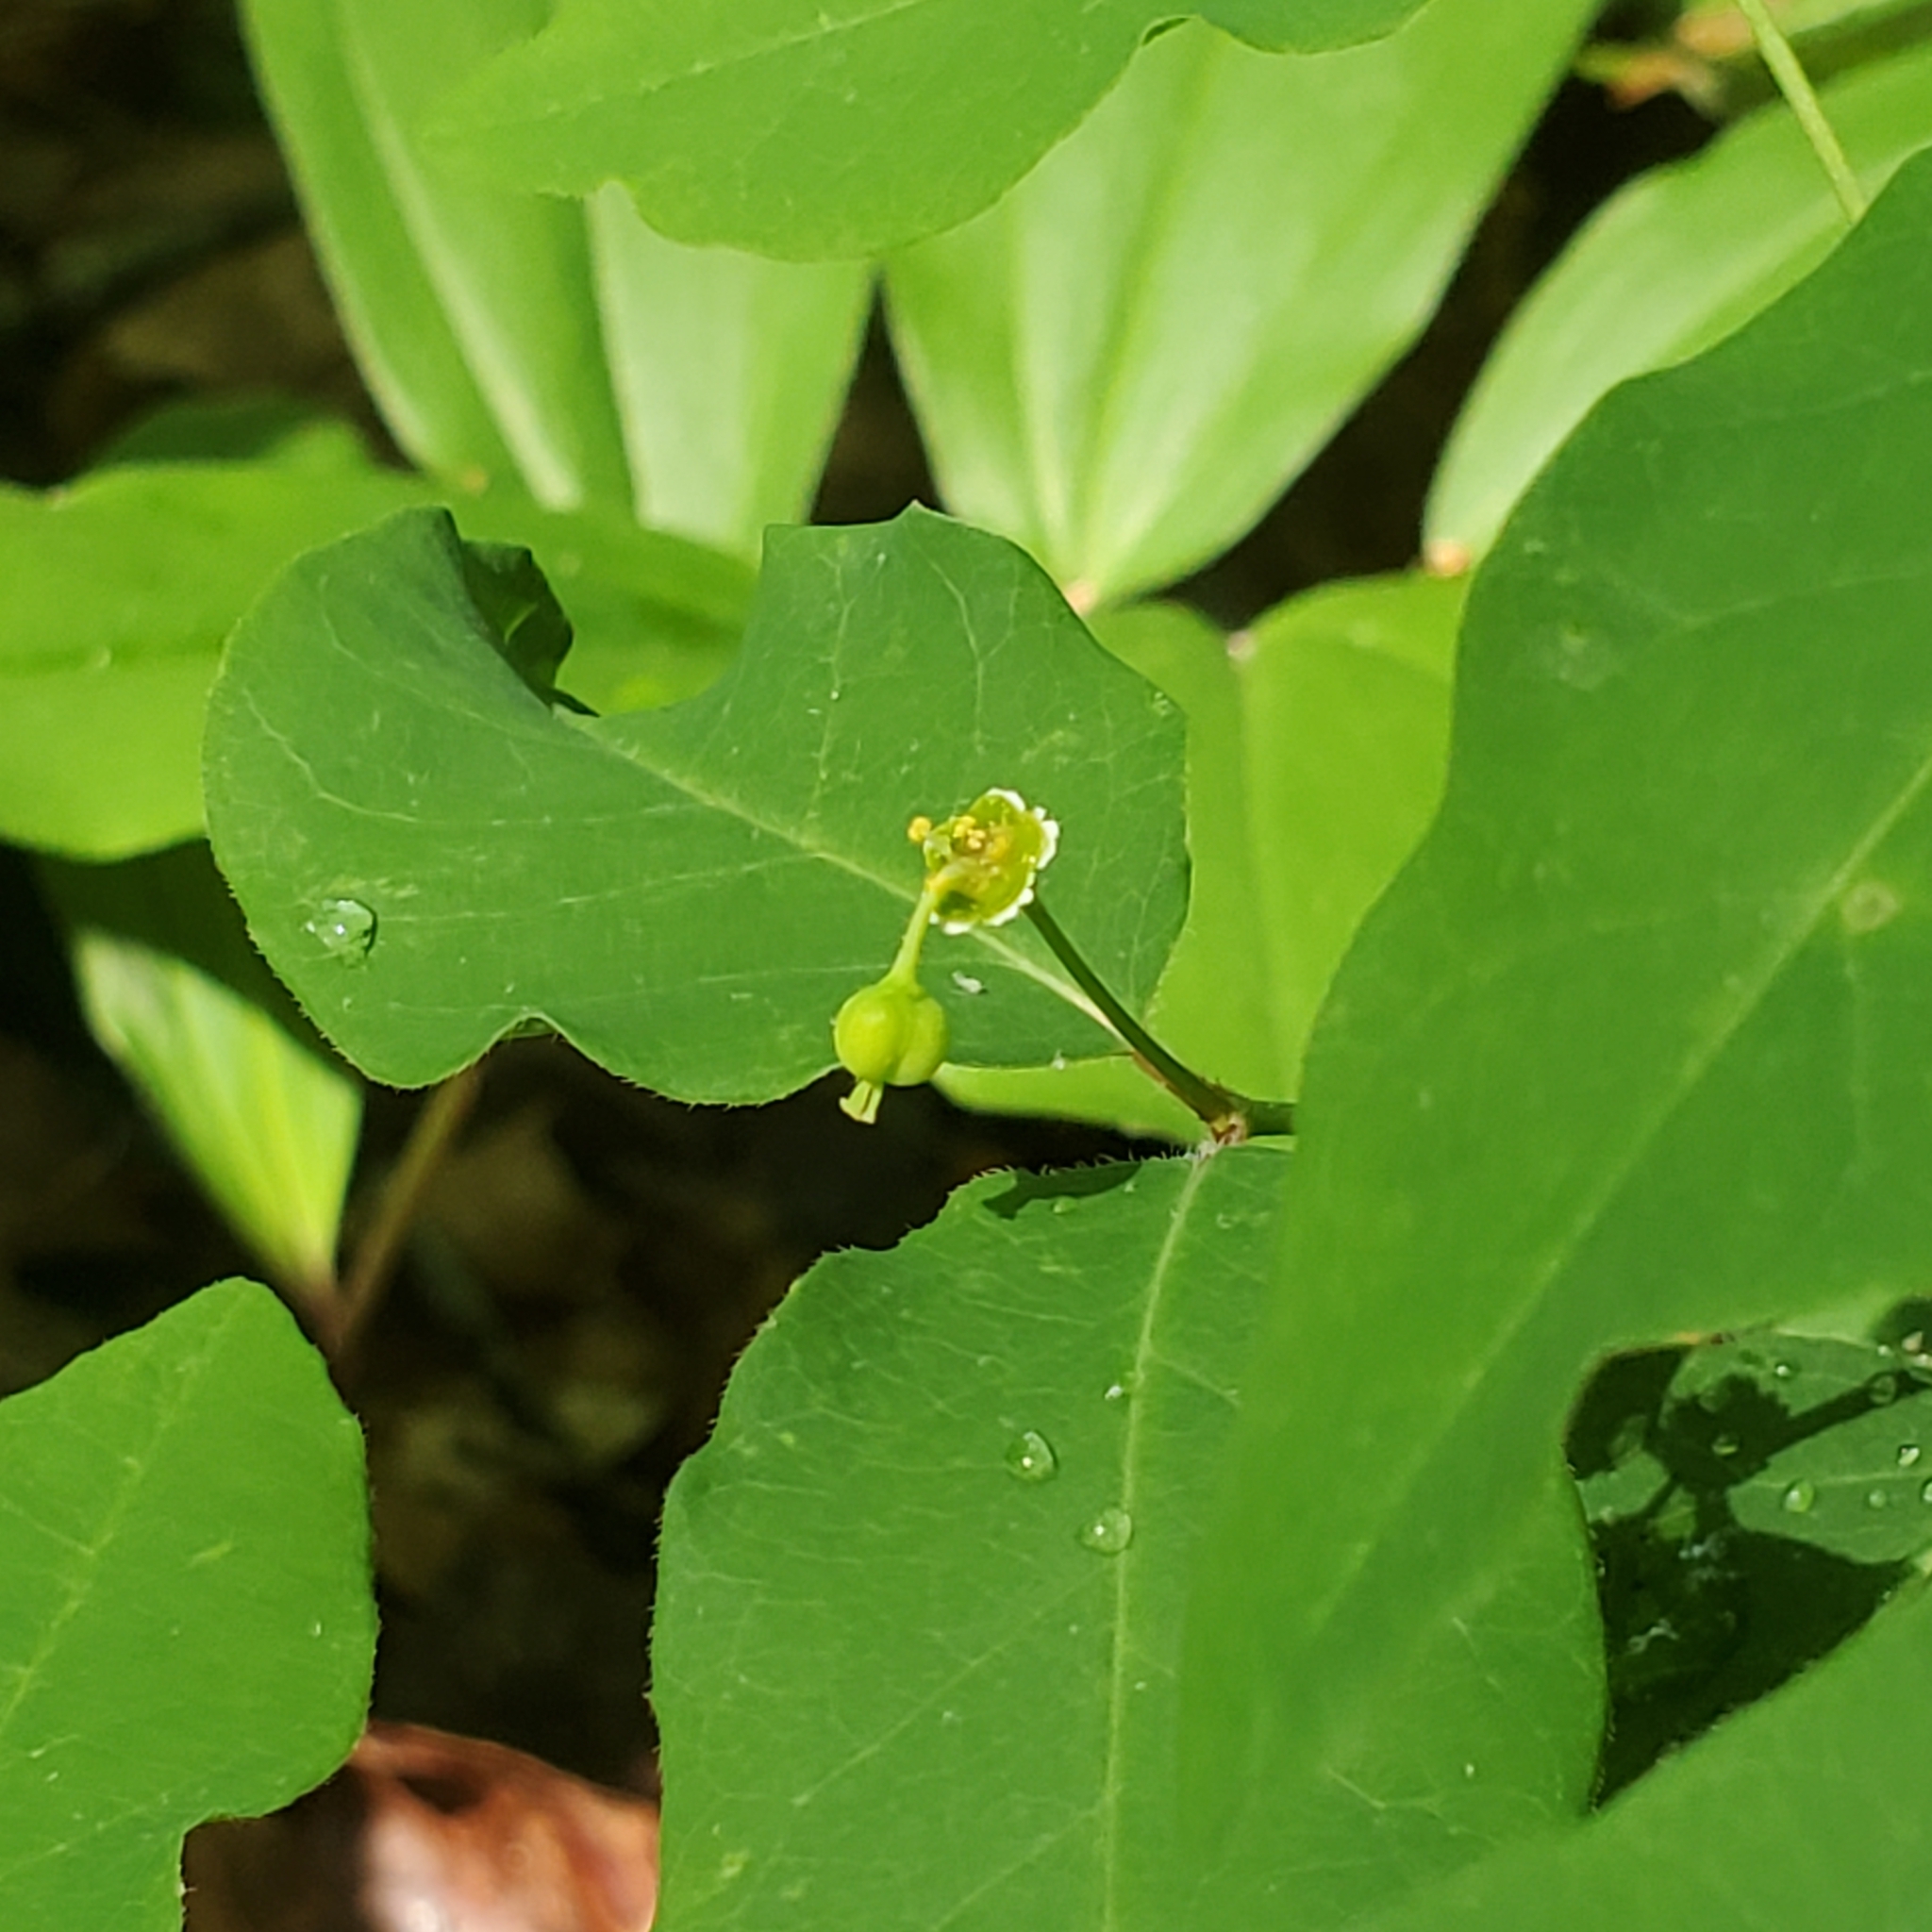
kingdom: Plantae
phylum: Tracheophyta
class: Magnoliopsida
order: Malpighiales
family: Euphorbiaceae
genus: Euphorbia
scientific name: Euphorbia mercurialina
